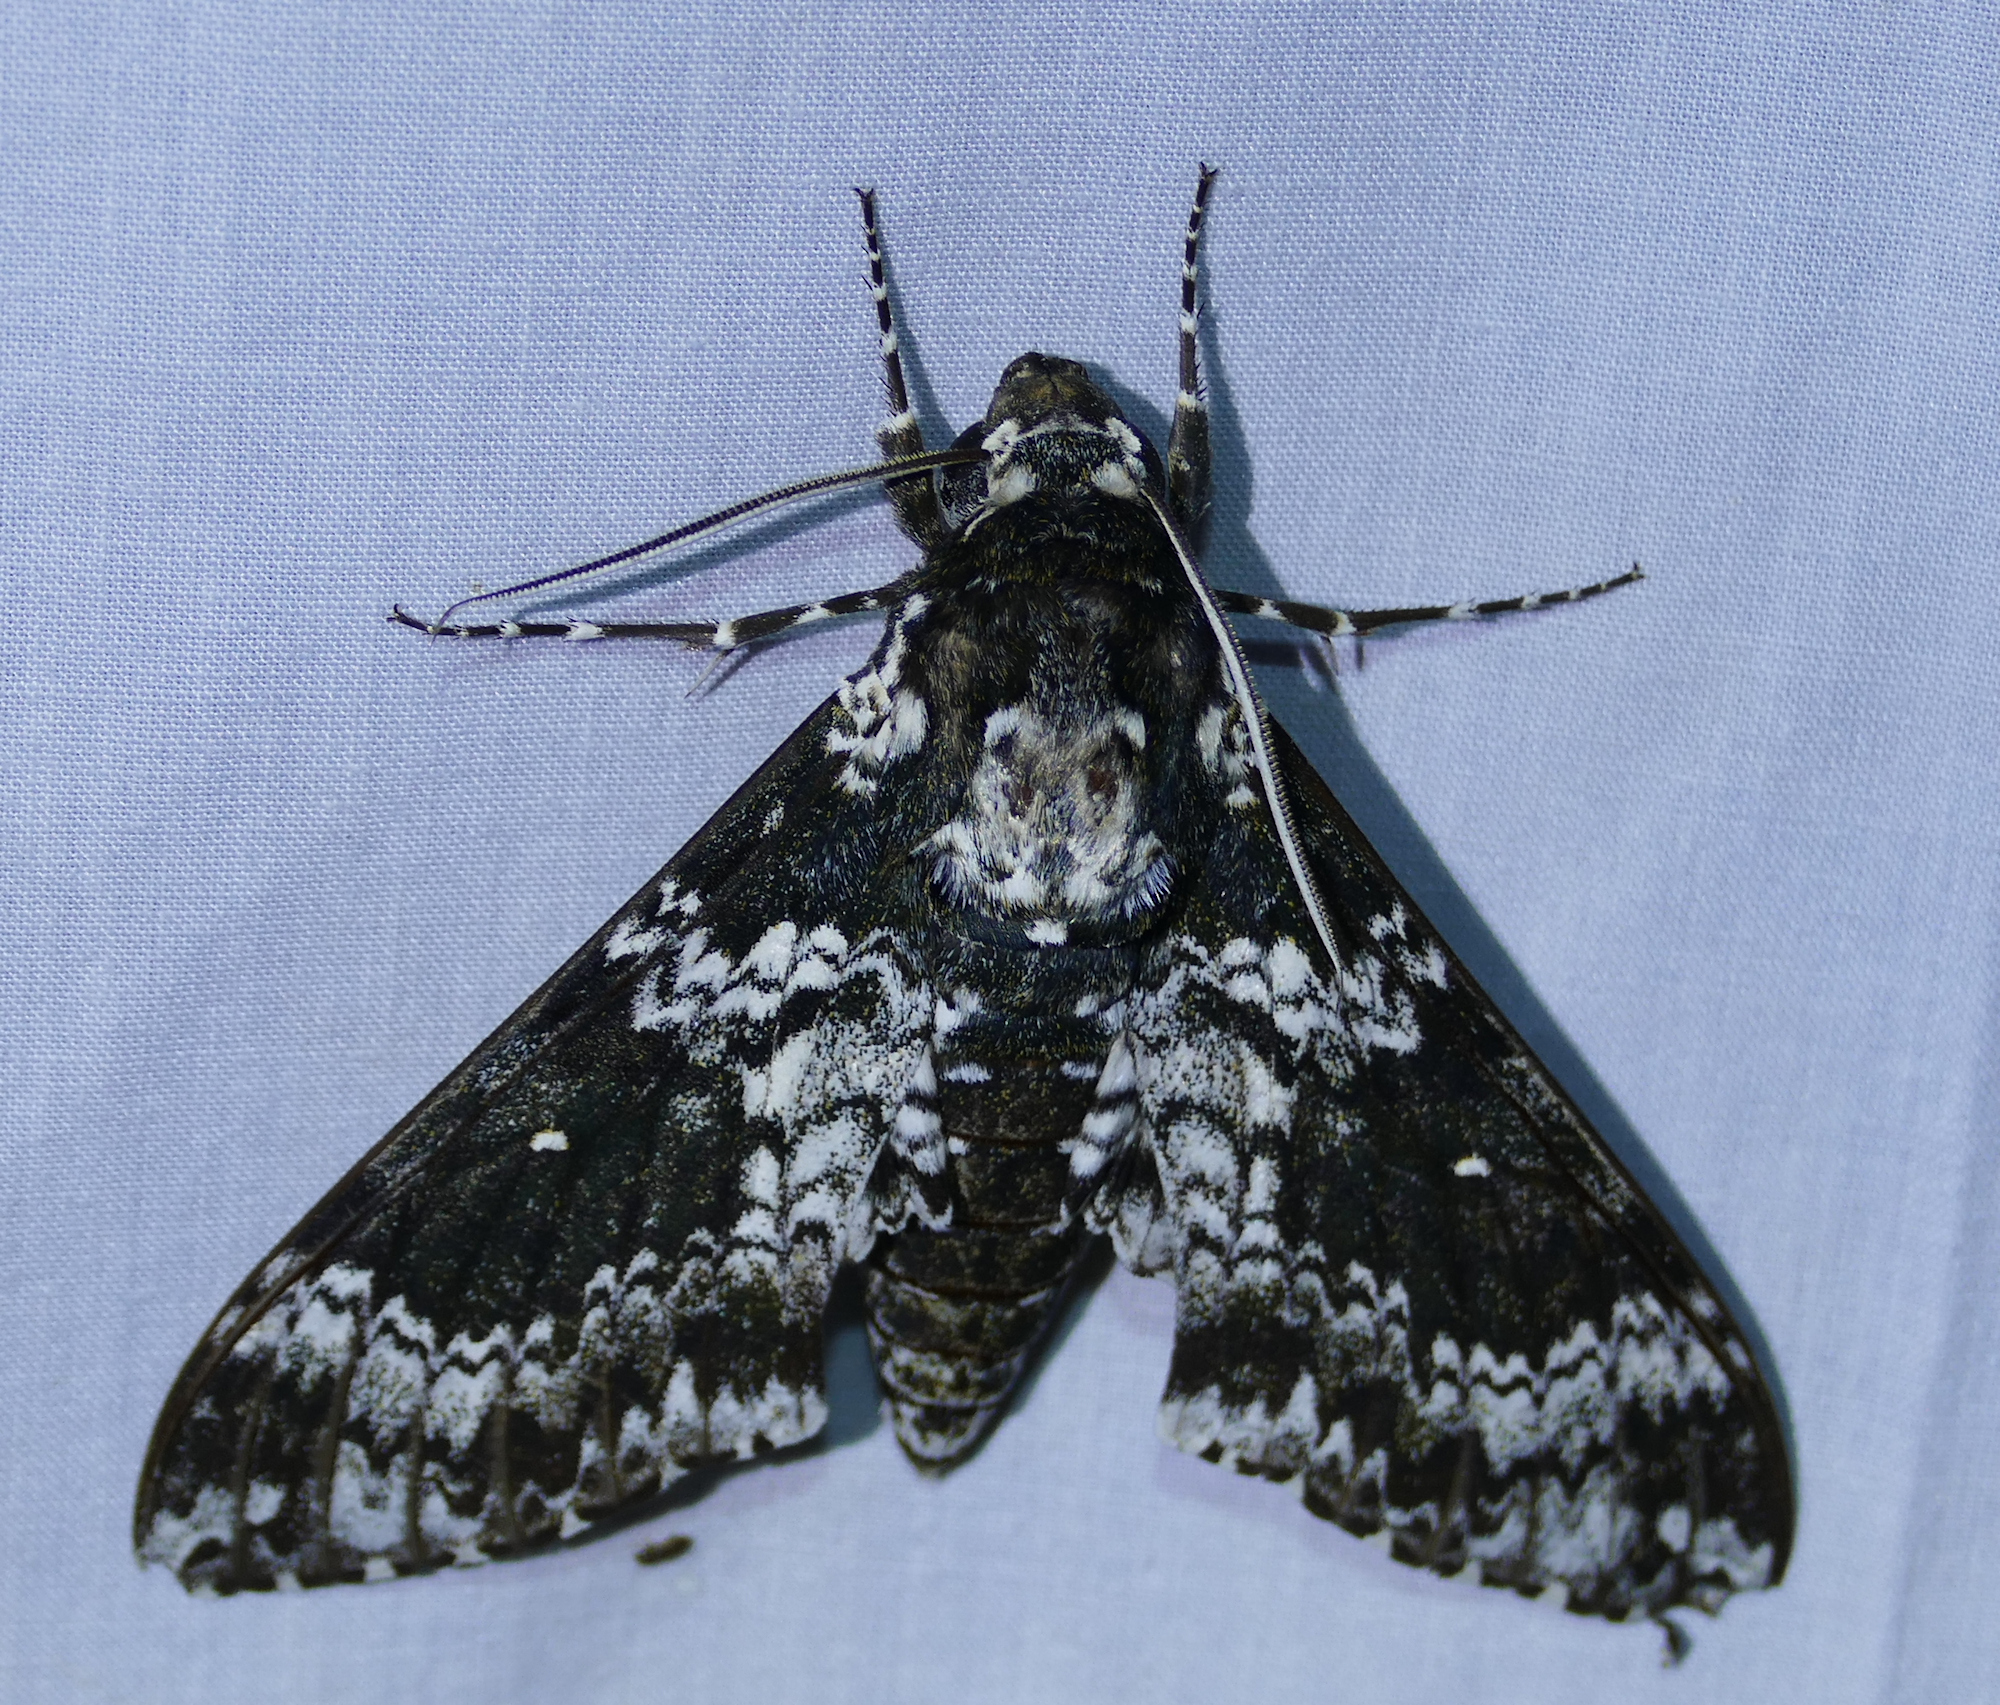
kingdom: Animalia
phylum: Arthropoda
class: Insecta
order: Lepidoptera
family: Sphingidae
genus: Manduca
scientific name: Manduca rustica
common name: Rustic sphinx
